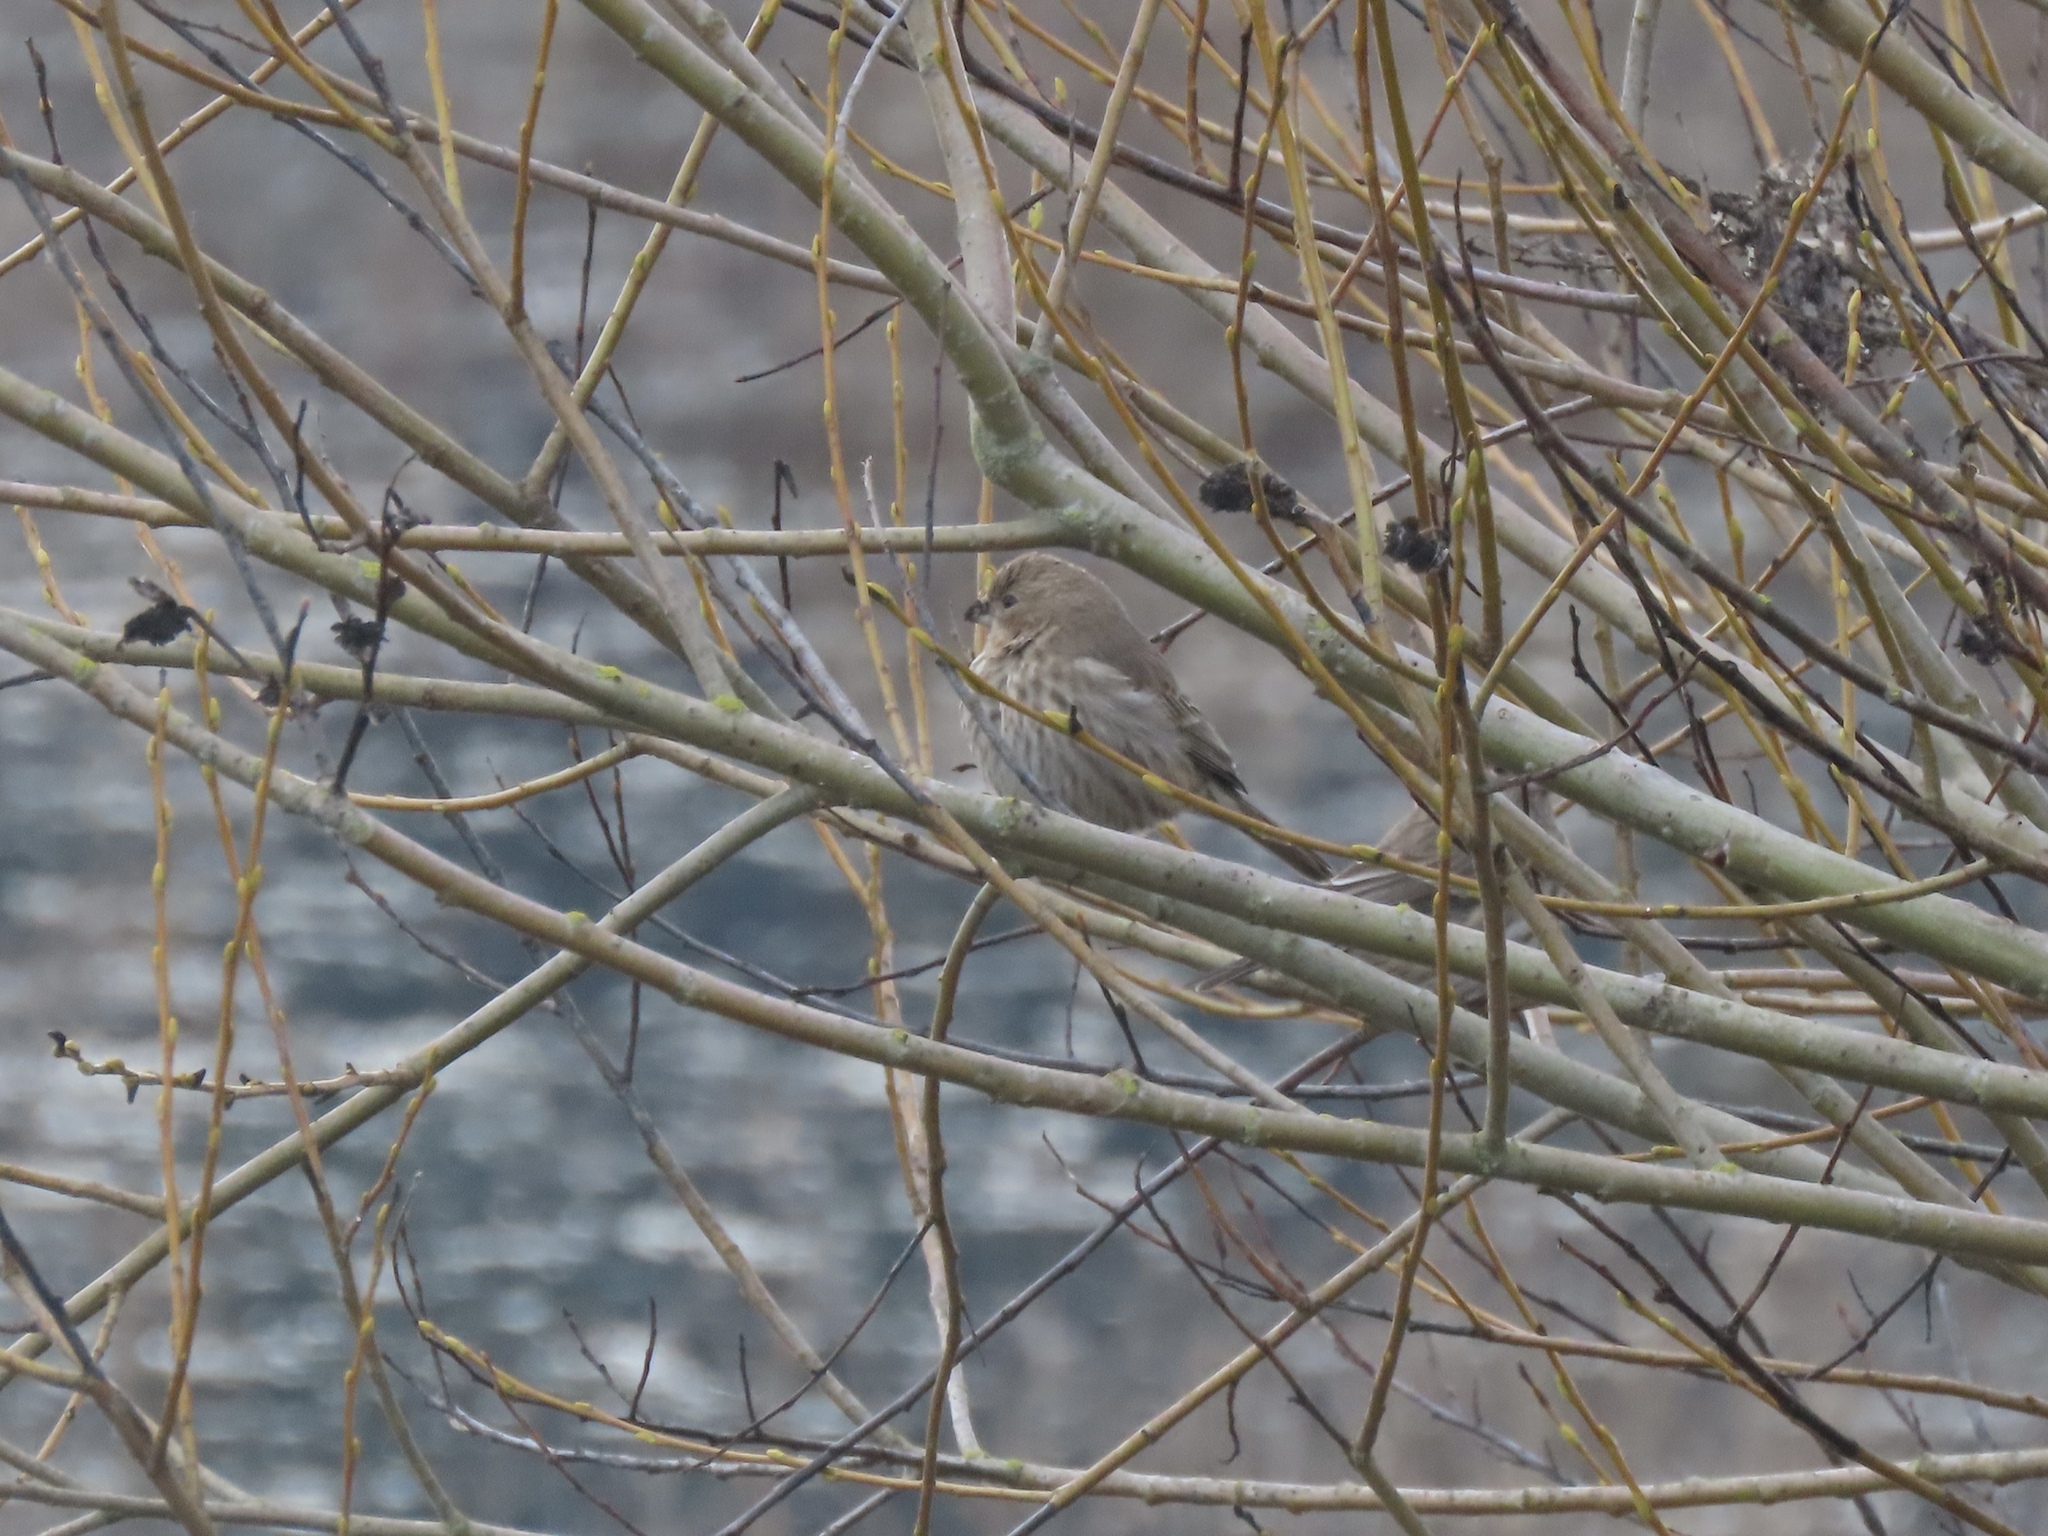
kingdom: Animalia
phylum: Chordata
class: Aves
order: Passeriformes
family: Fringillidae
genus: Haemorhous
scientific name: Haemorhous mexicanus
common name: House finch
